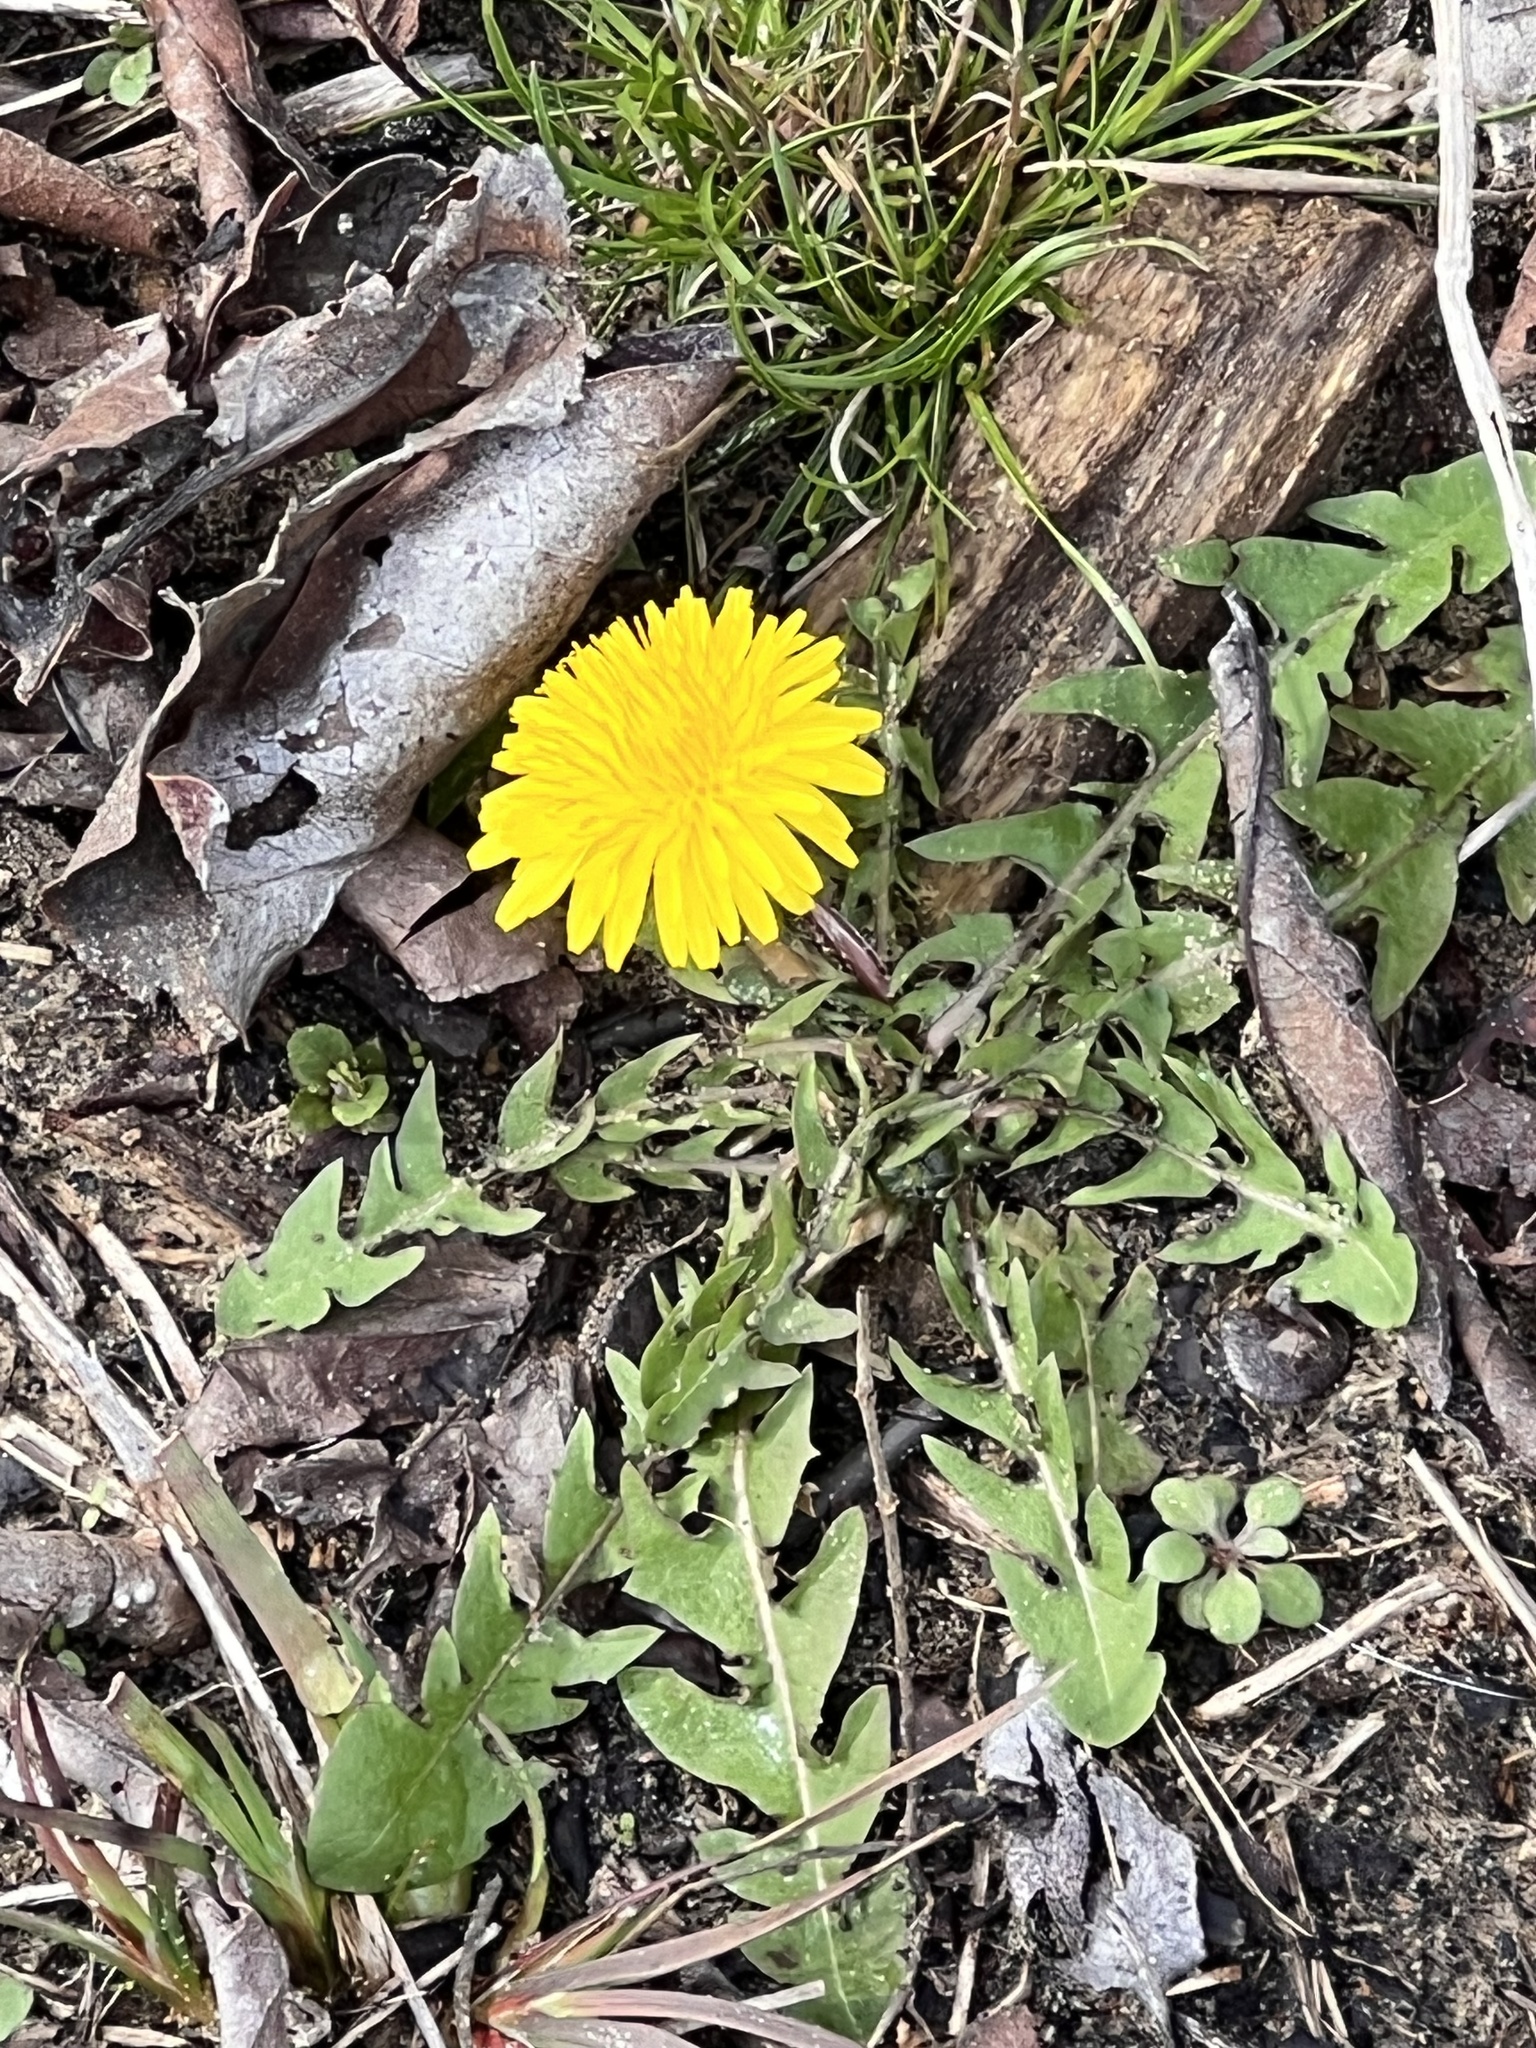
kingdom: Plantae
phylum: Tracheophyta
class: Magnoliopsida
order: Asterales
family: Asteraceae
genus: Taraxacum
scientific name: Taraxacum officinale
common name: Common dandelion
